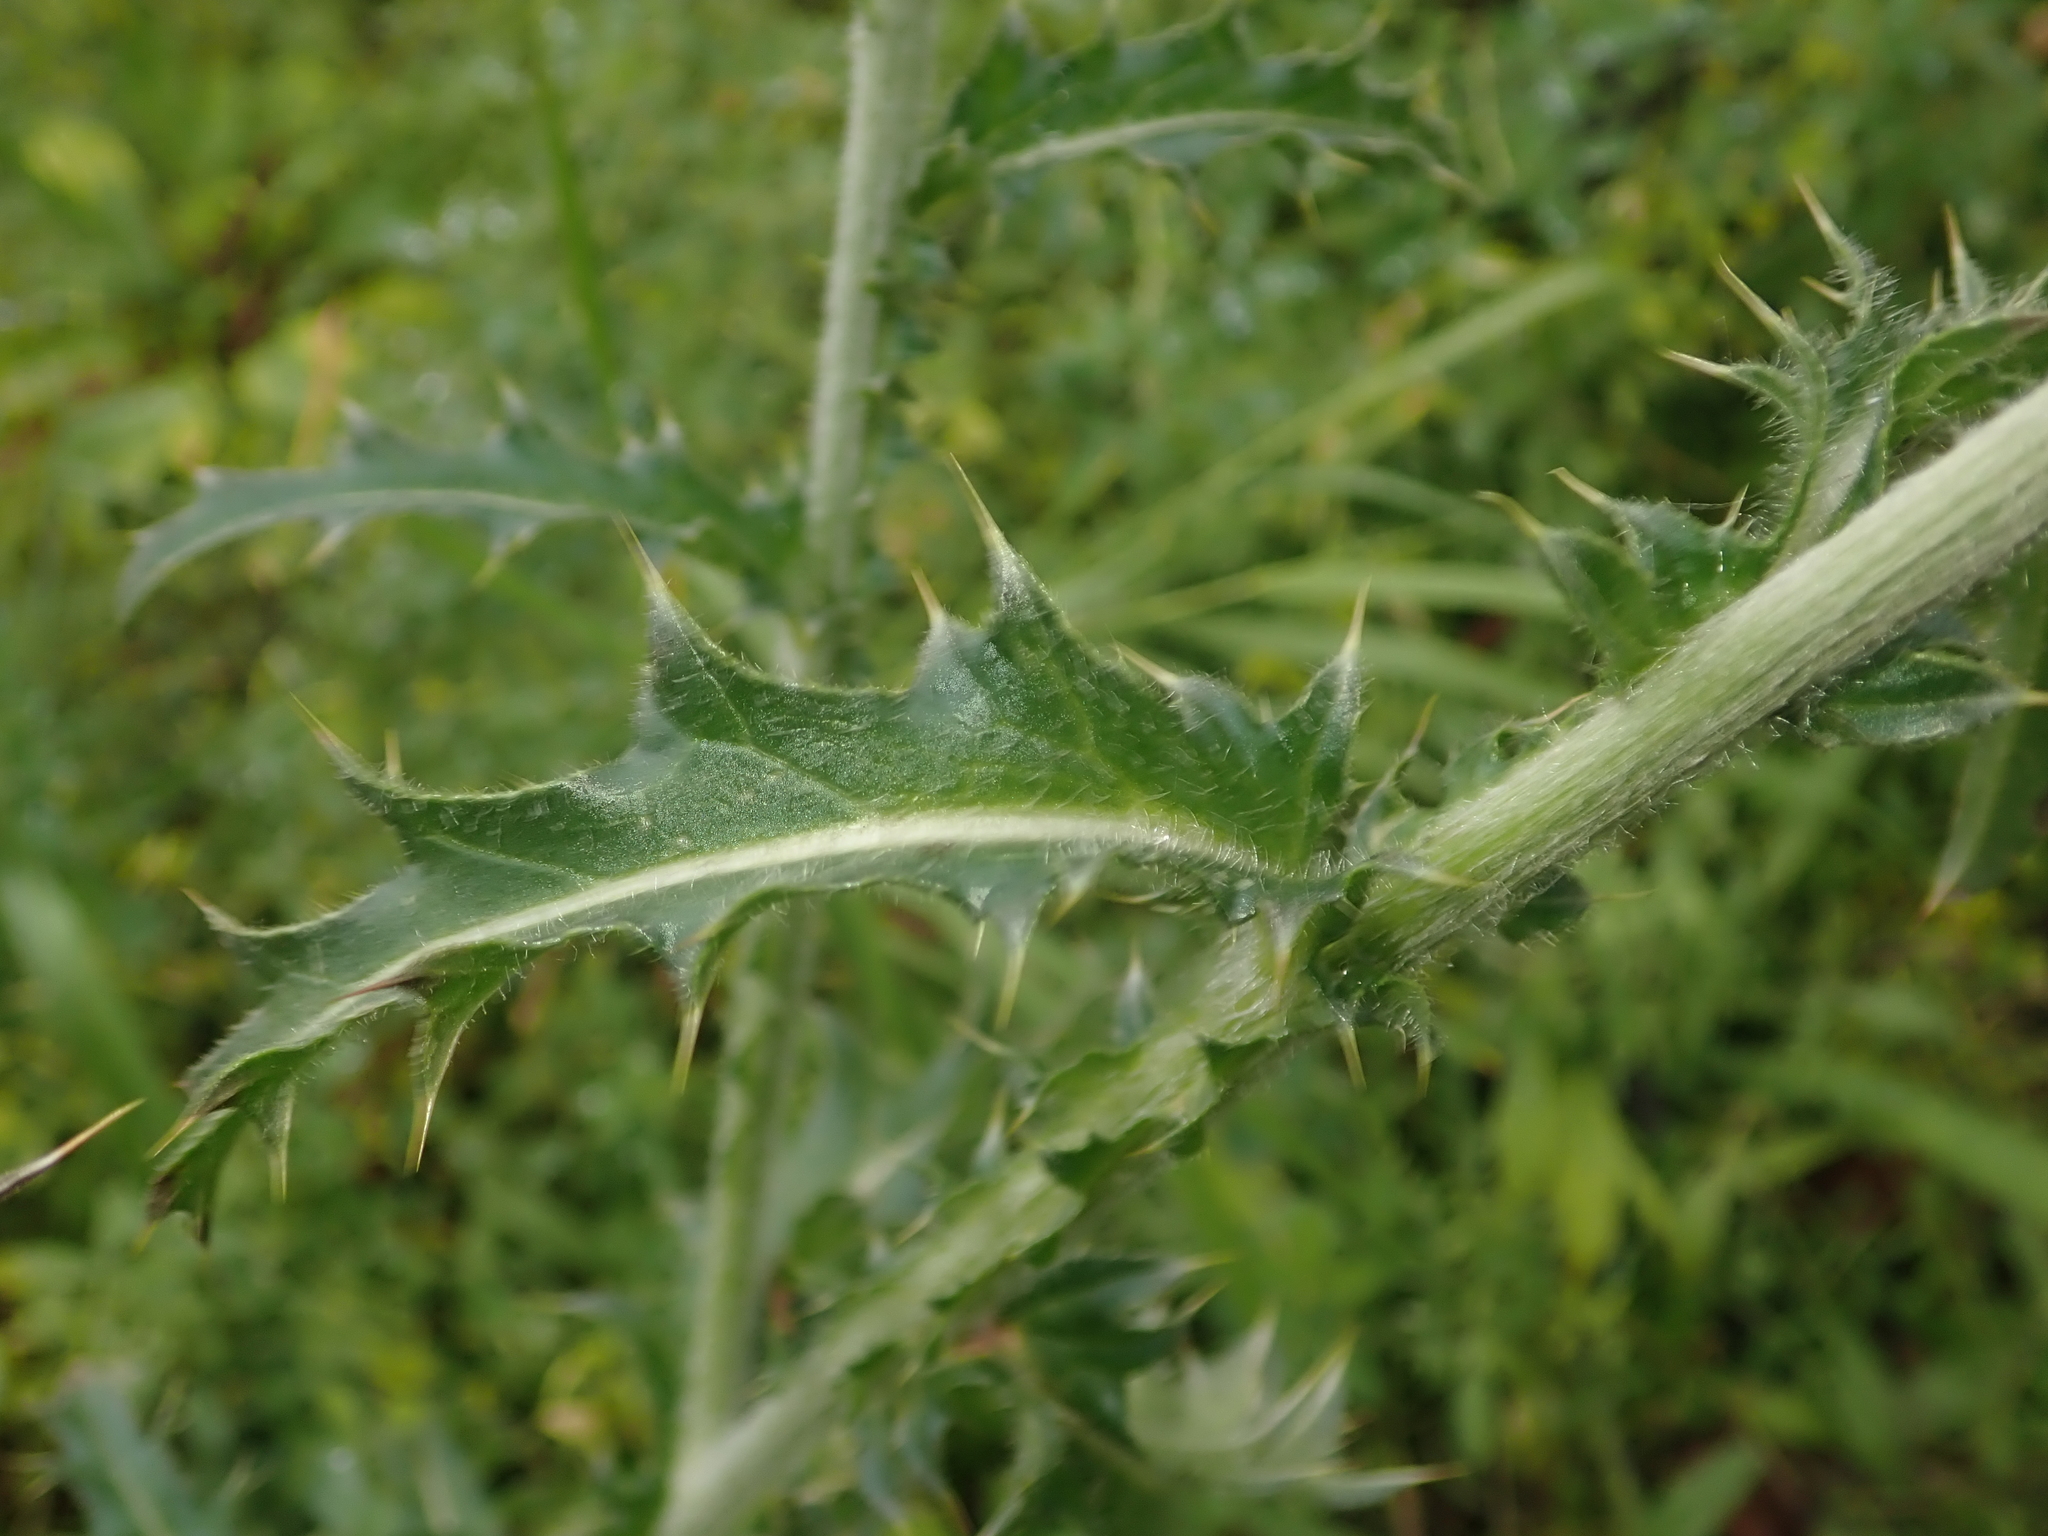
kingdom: Plantae
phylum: Tracheophyta
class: Magnoliopsida
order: Asterales
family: Asteraceae
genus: Carduus
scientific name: Carduus nutans
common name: Musk thistle
